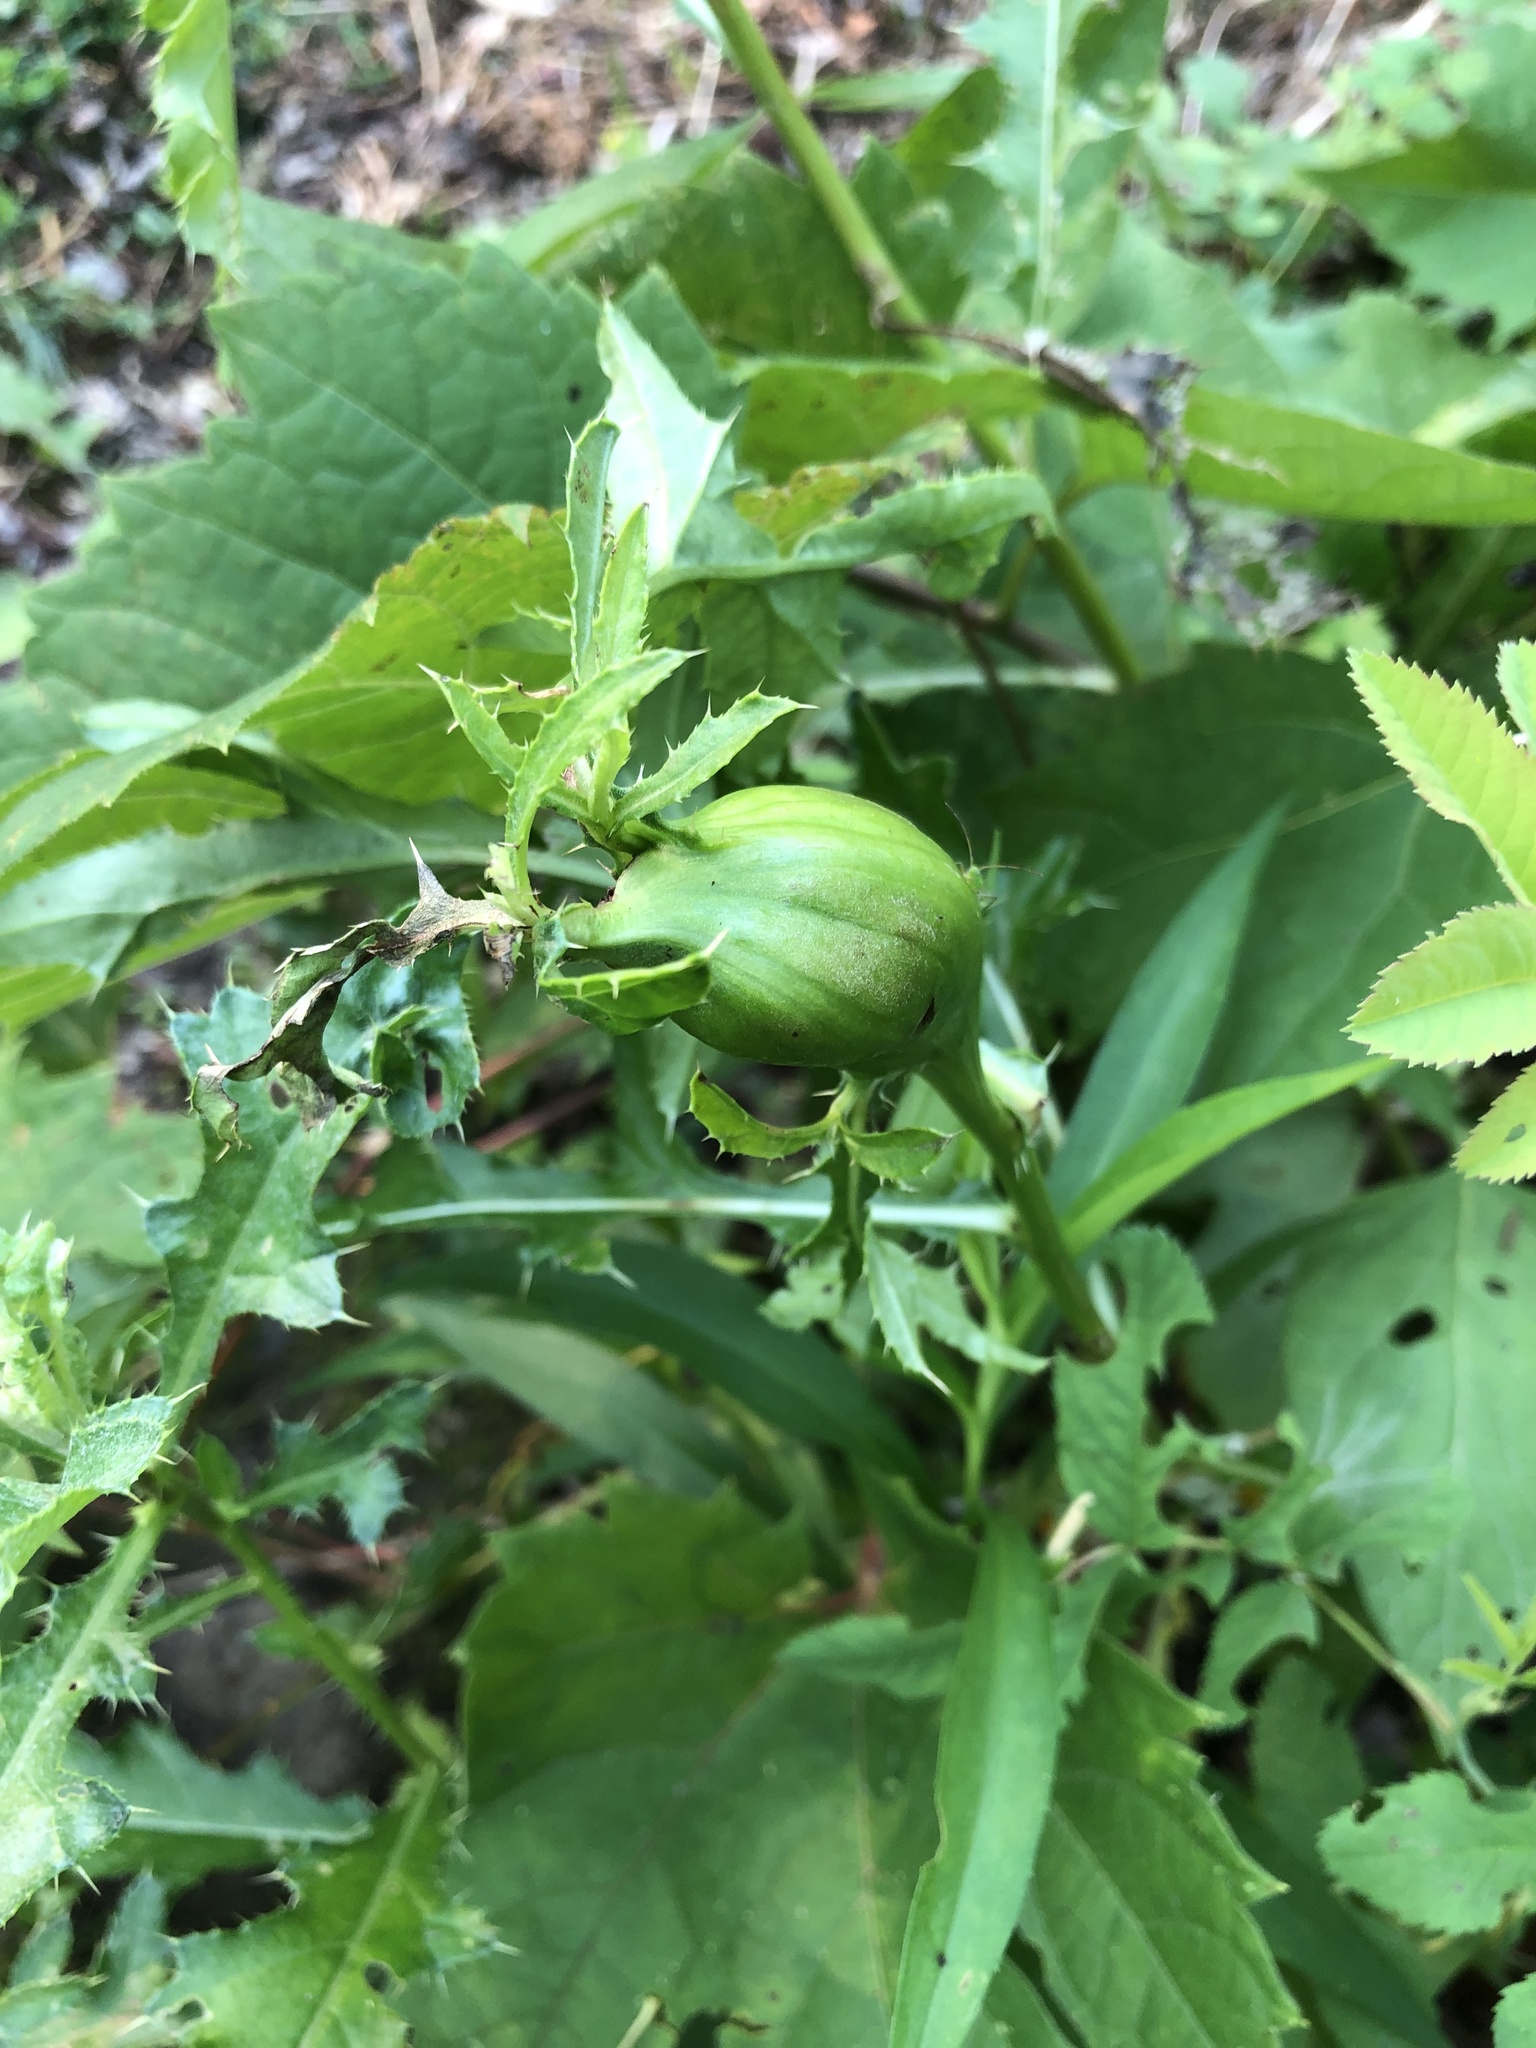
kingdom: Animalia
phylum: Arthropoda
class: Insecta
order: Diptera
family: Tephritidae
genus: Urophora
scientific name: Urophora cardui
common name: Fruit fly
